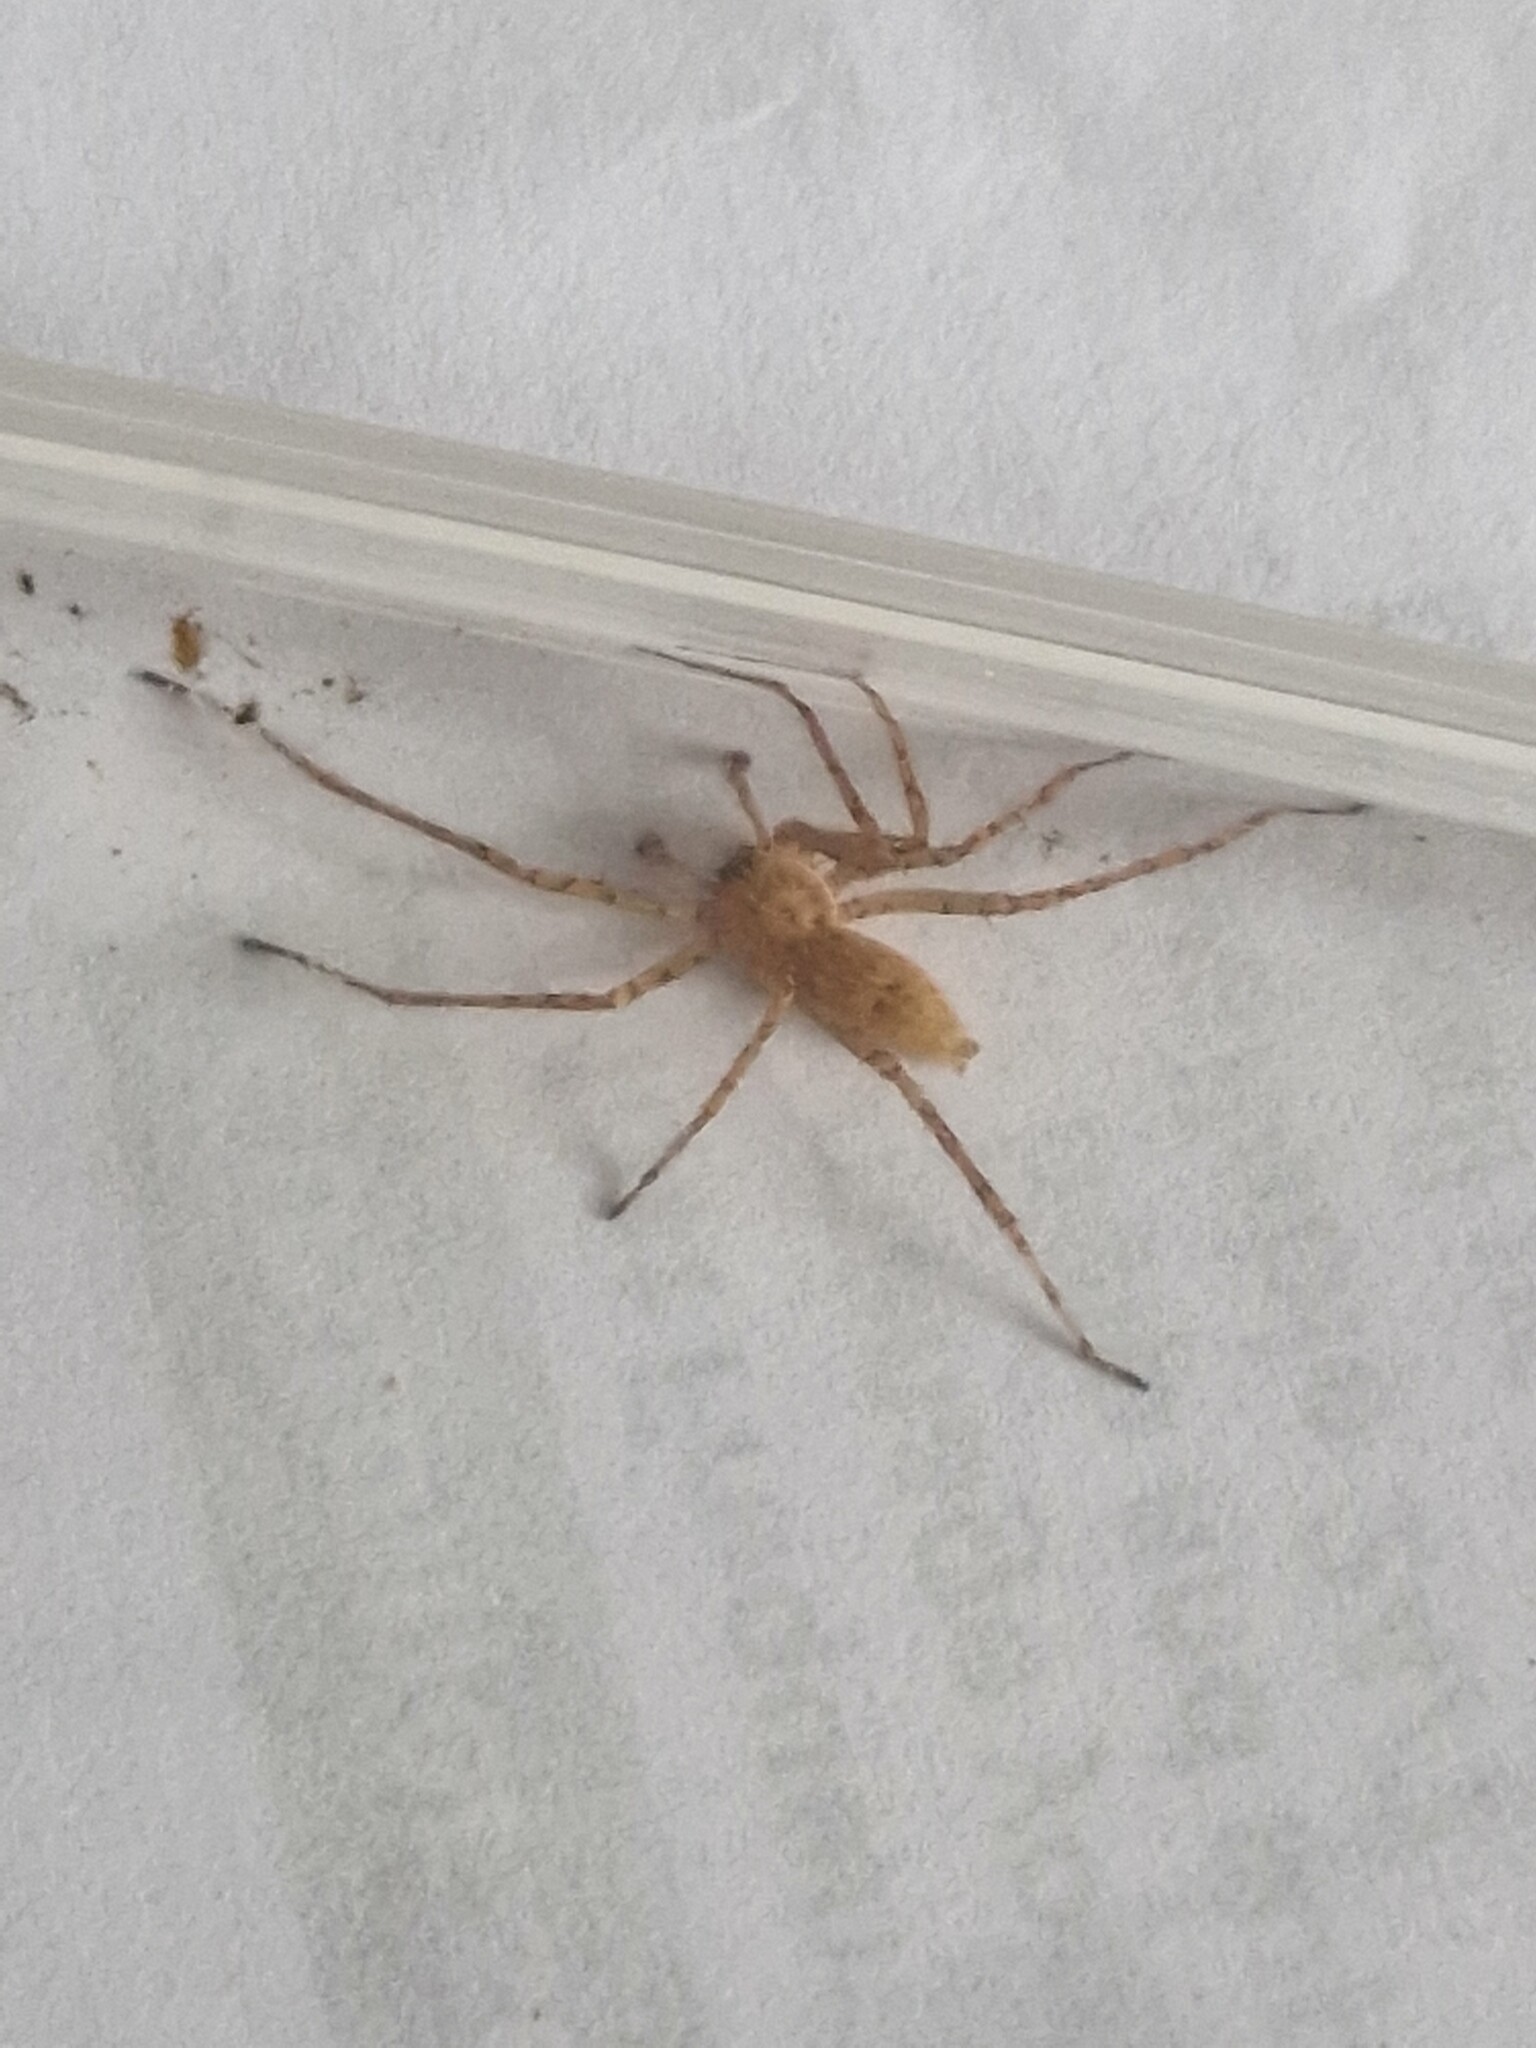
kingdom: Animalia
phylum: Arthropoda
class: Arachnida
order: Araneae
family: Anyphaenidae
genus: Anyphaena
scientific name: Anyphaena numida
